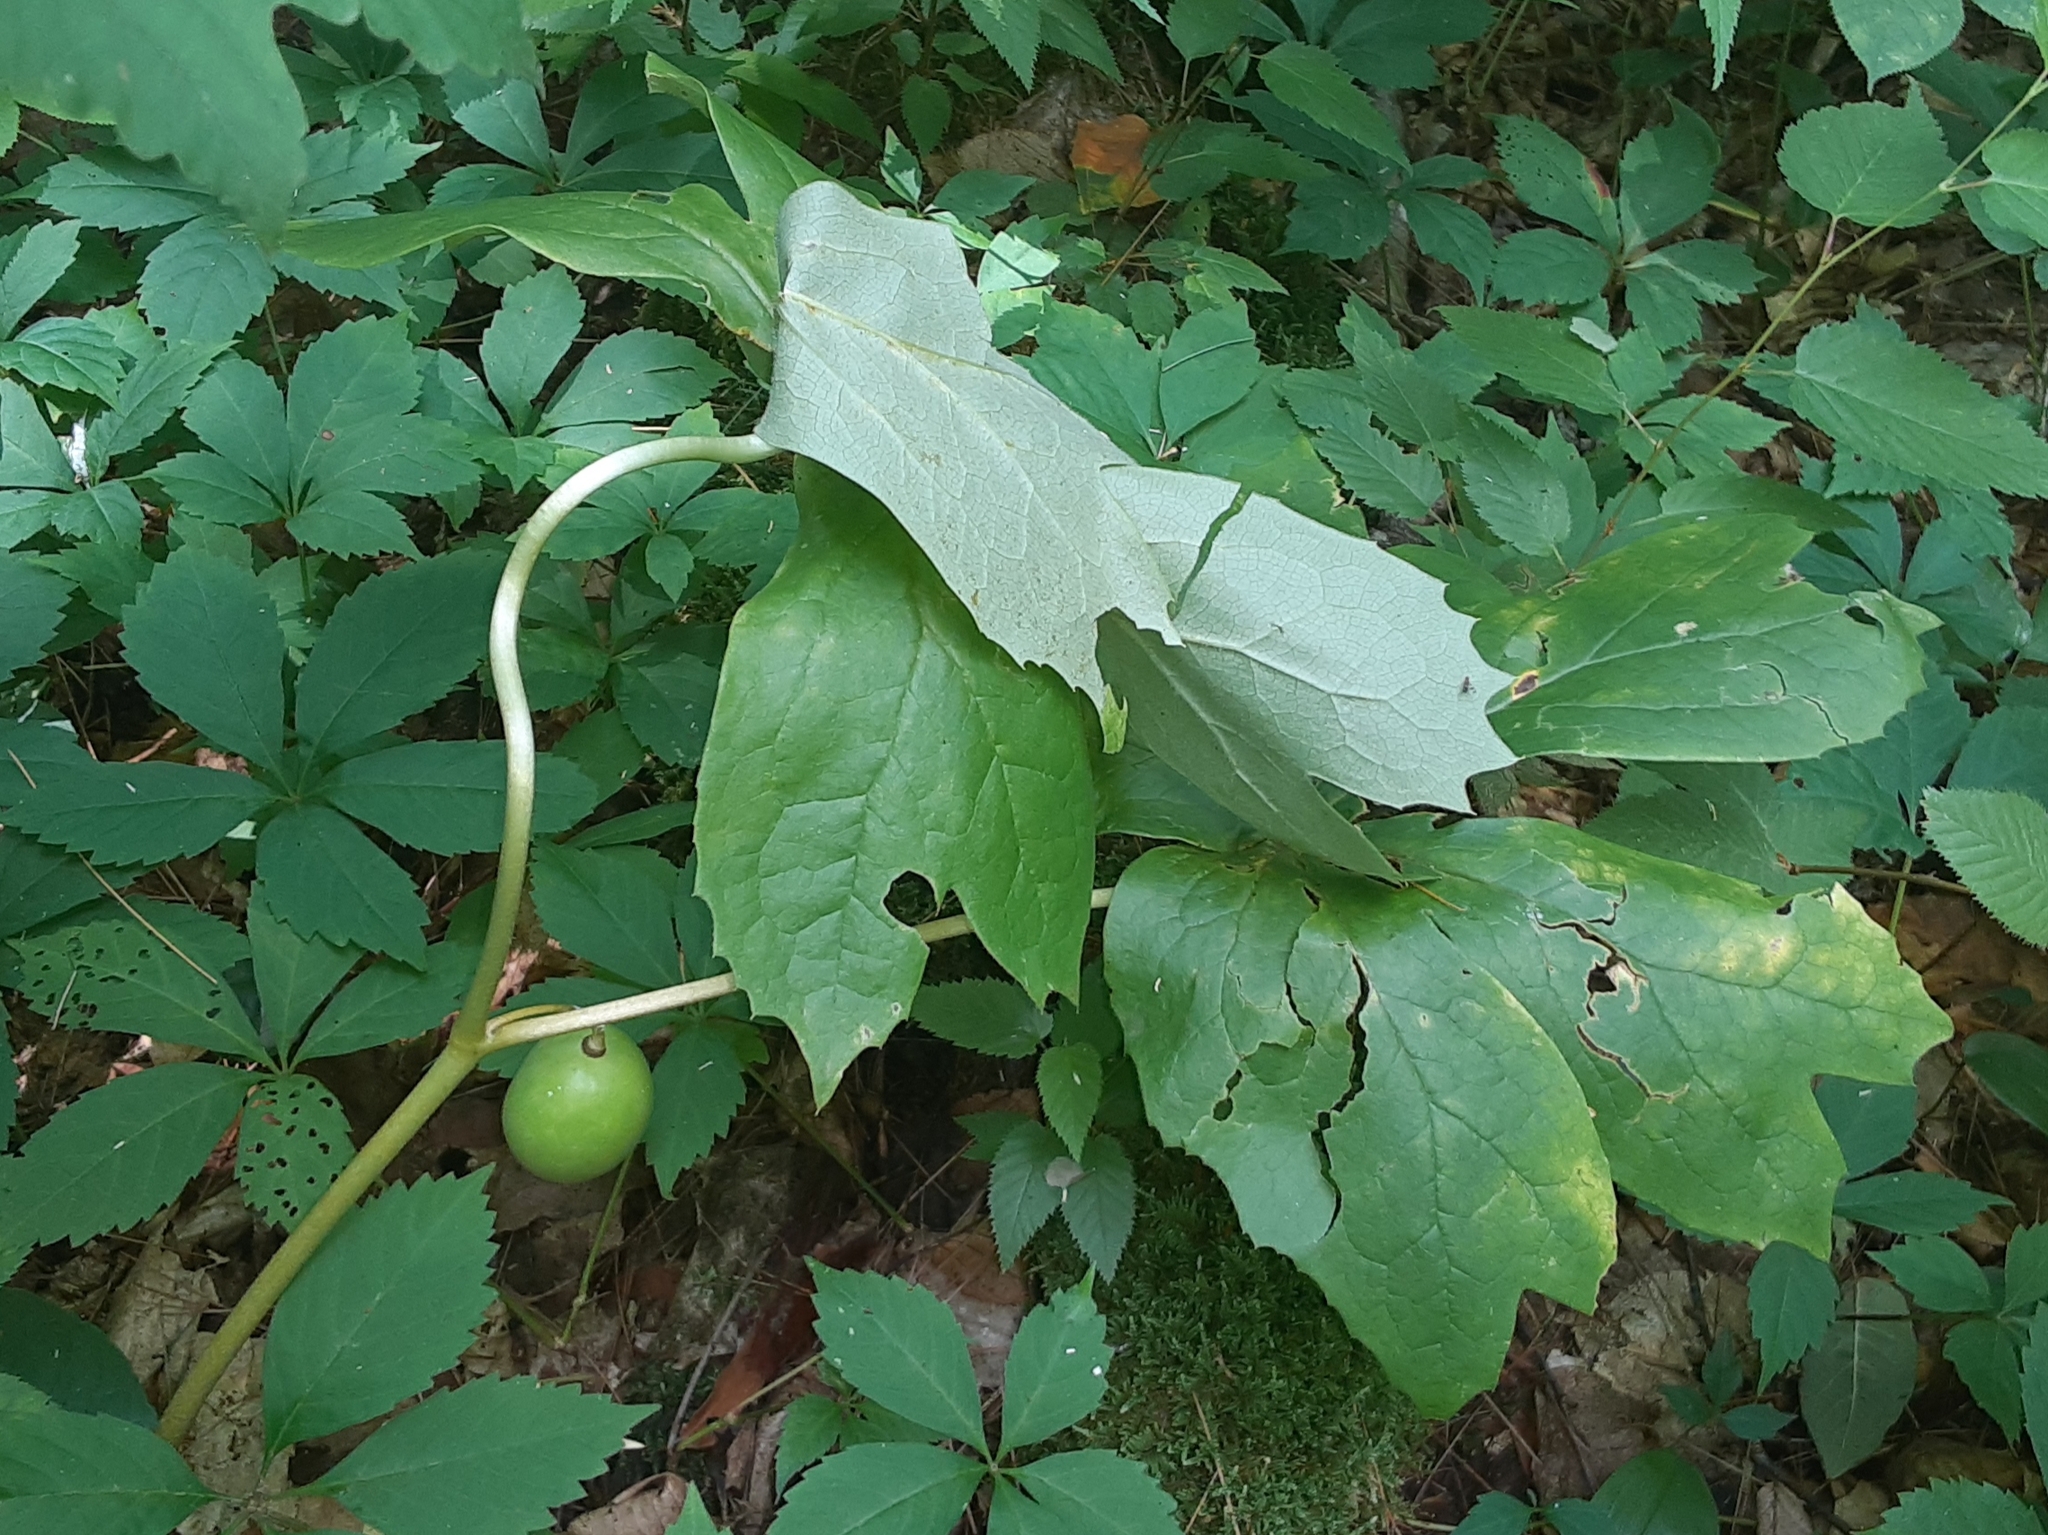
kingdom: Plantae
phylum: Tracheophyta
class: Magnoliopsida
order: Ranunculales
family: Berberidaceae
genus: Podophyllum
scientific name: Podophyllum peltatum
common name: Wild mandrake
